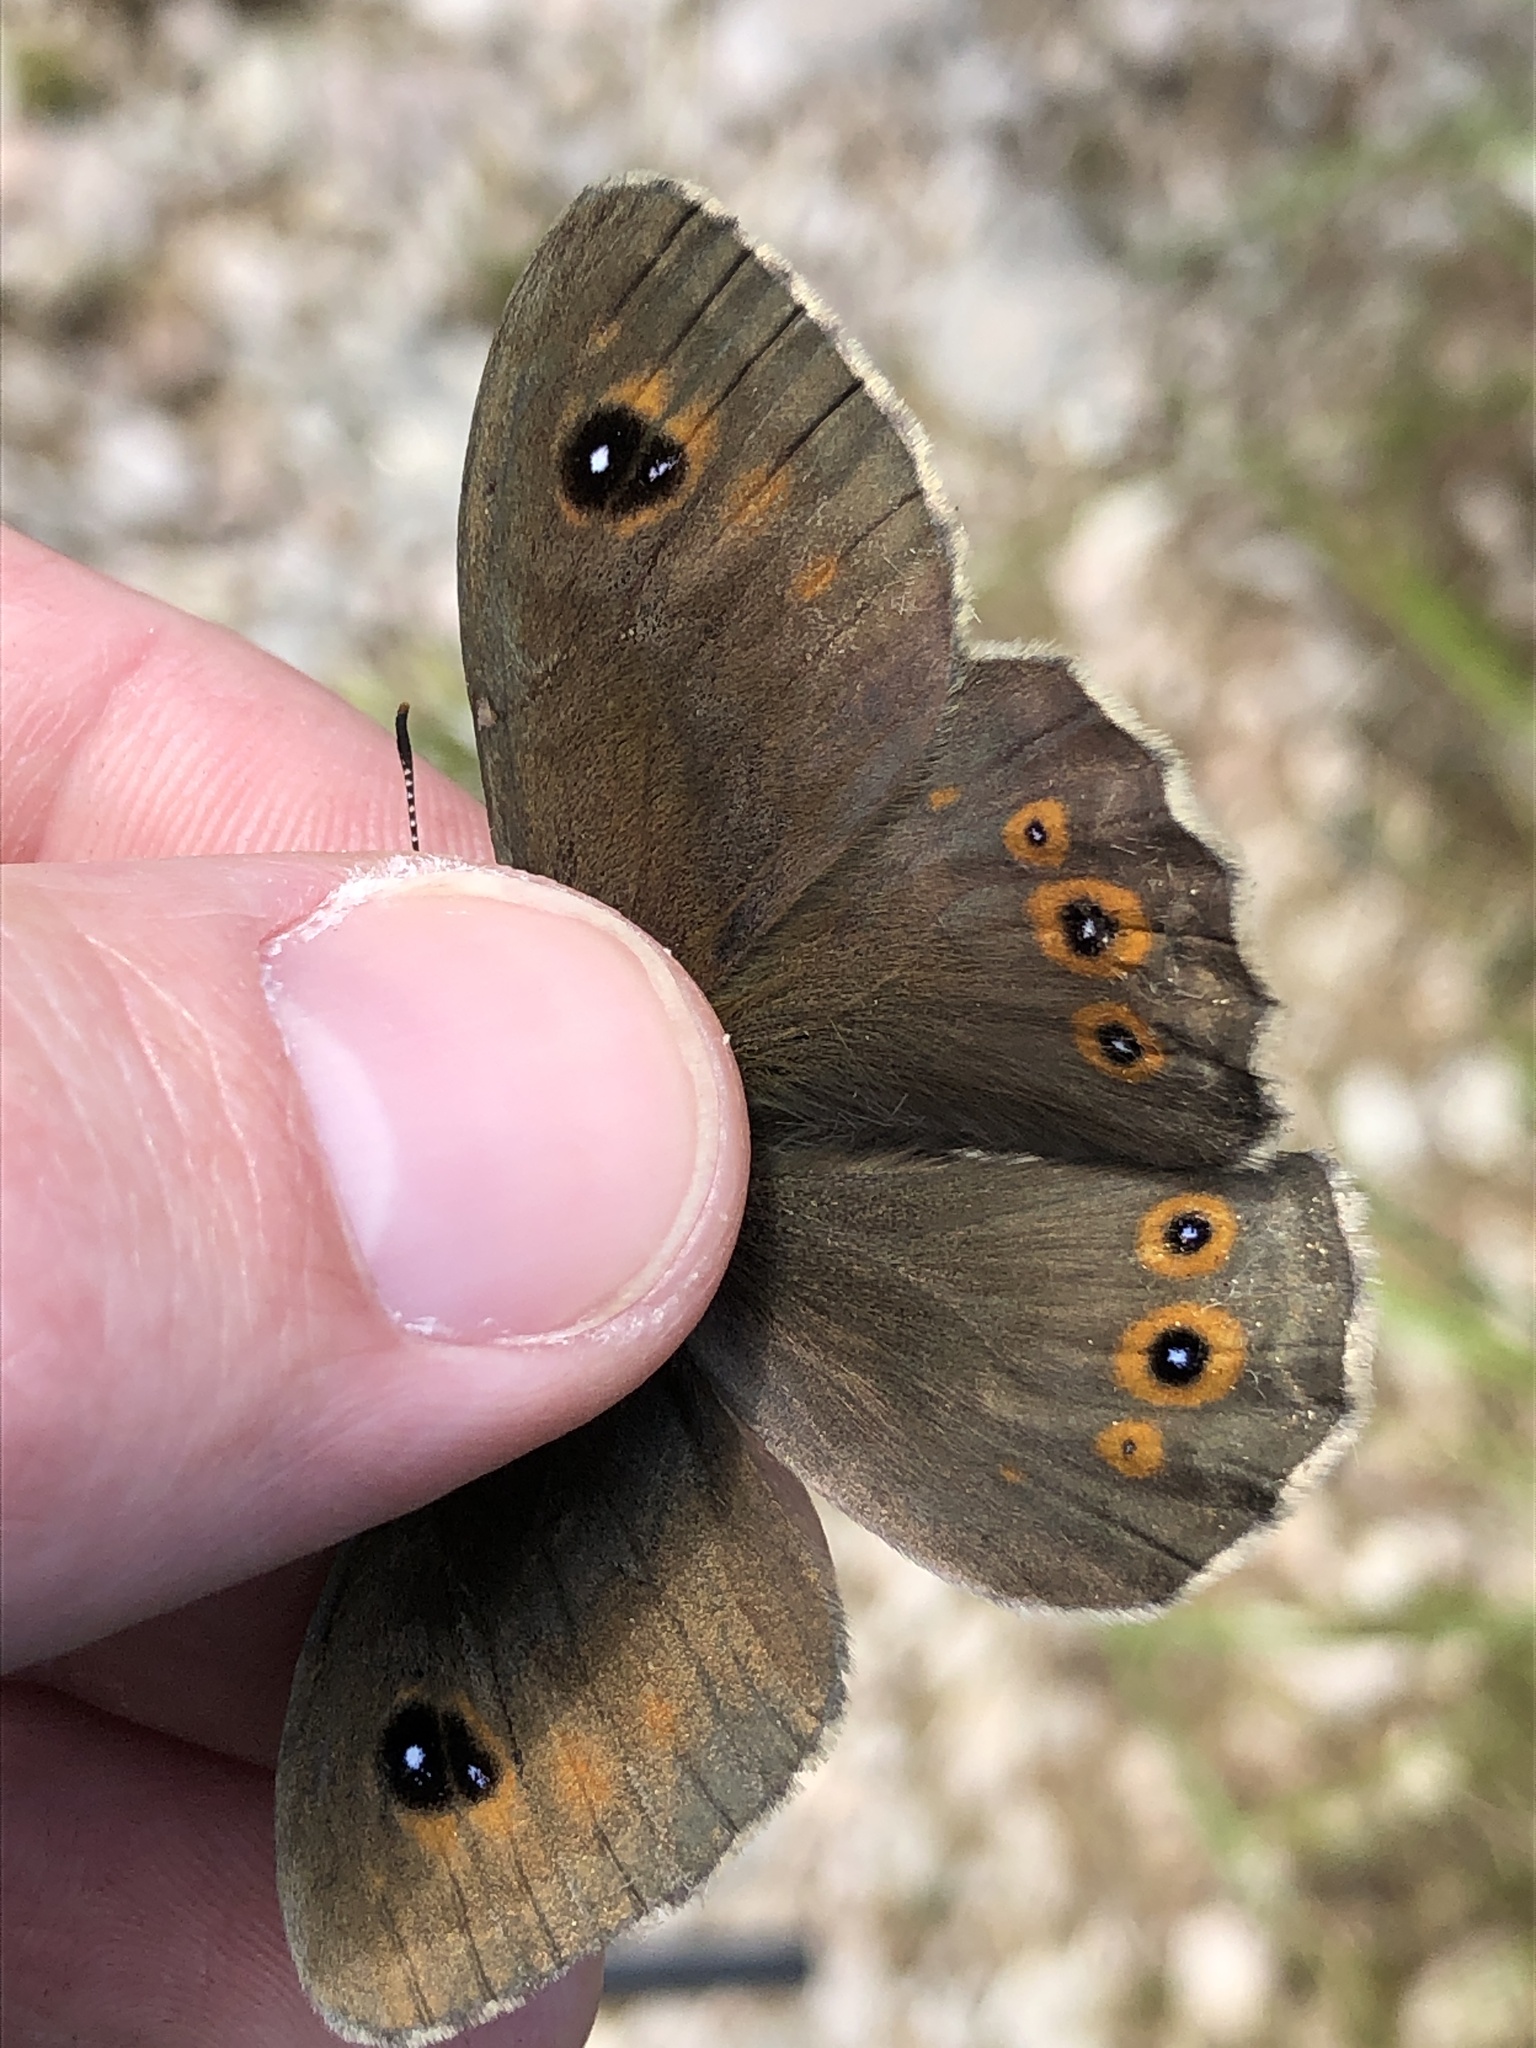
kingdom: Animalia
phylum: Arthropoda
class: Insecta
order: Lepidoptera
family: Nymphalidae
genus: Pararge
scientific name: Pararge Lasiommata maera
